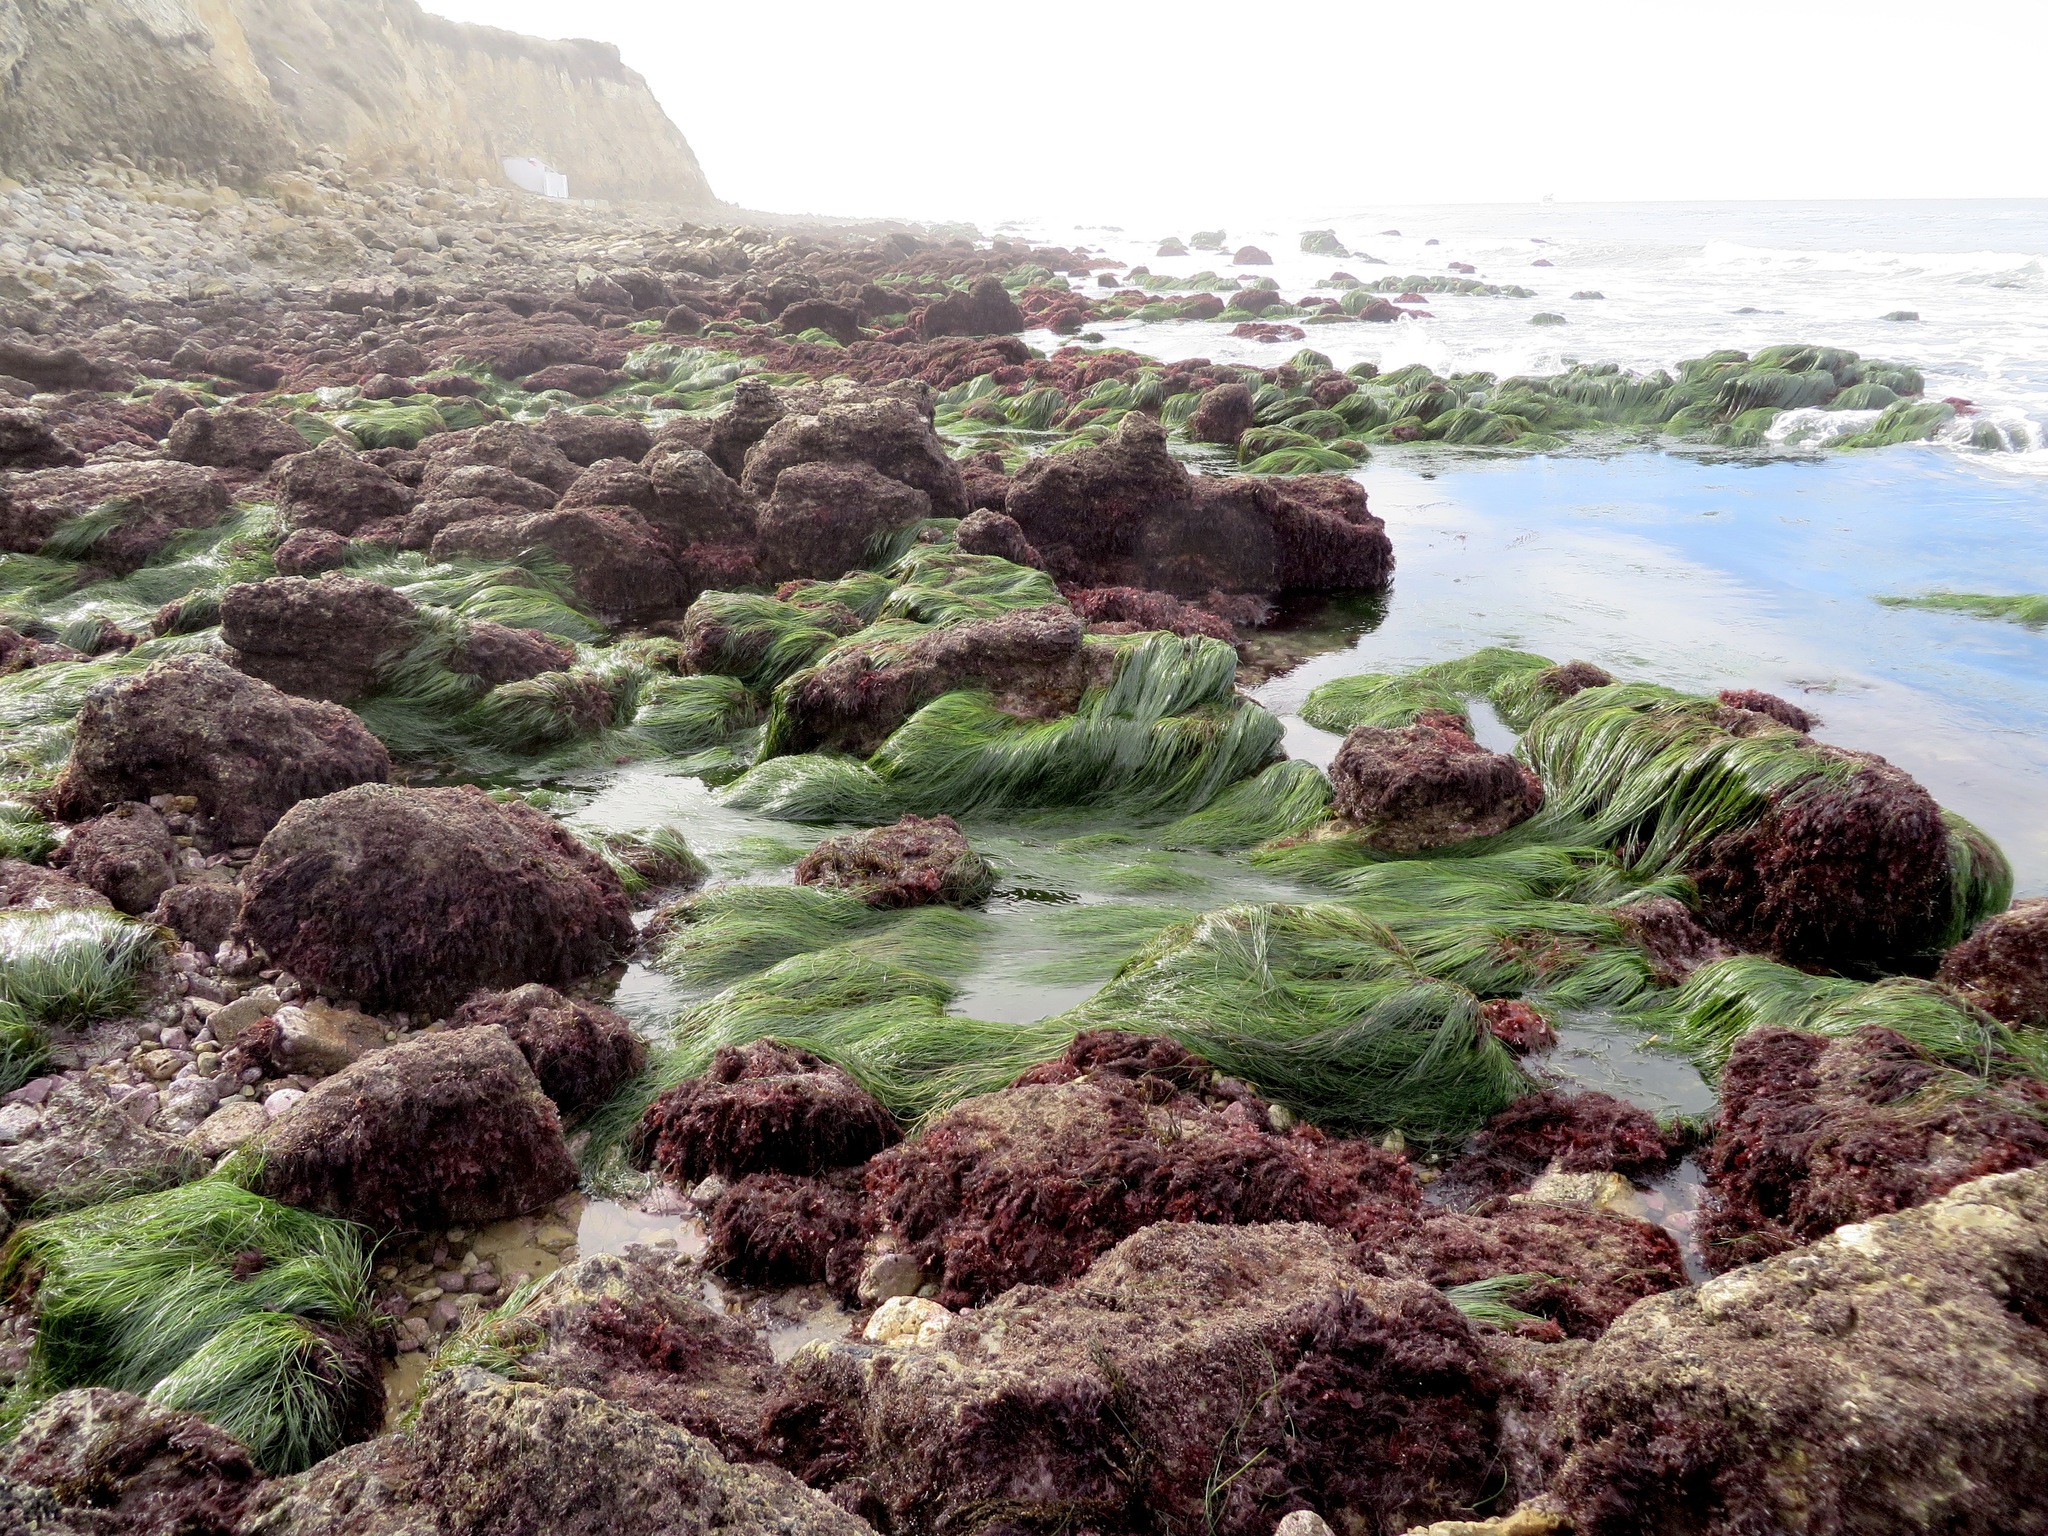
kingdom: Plantae
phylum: Tracheophyta
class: Liliopsida
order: Alismatales
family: Zosteraceae
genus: Phyllospadix
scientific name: Phyllospadix torreyi
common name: Surfgrass
